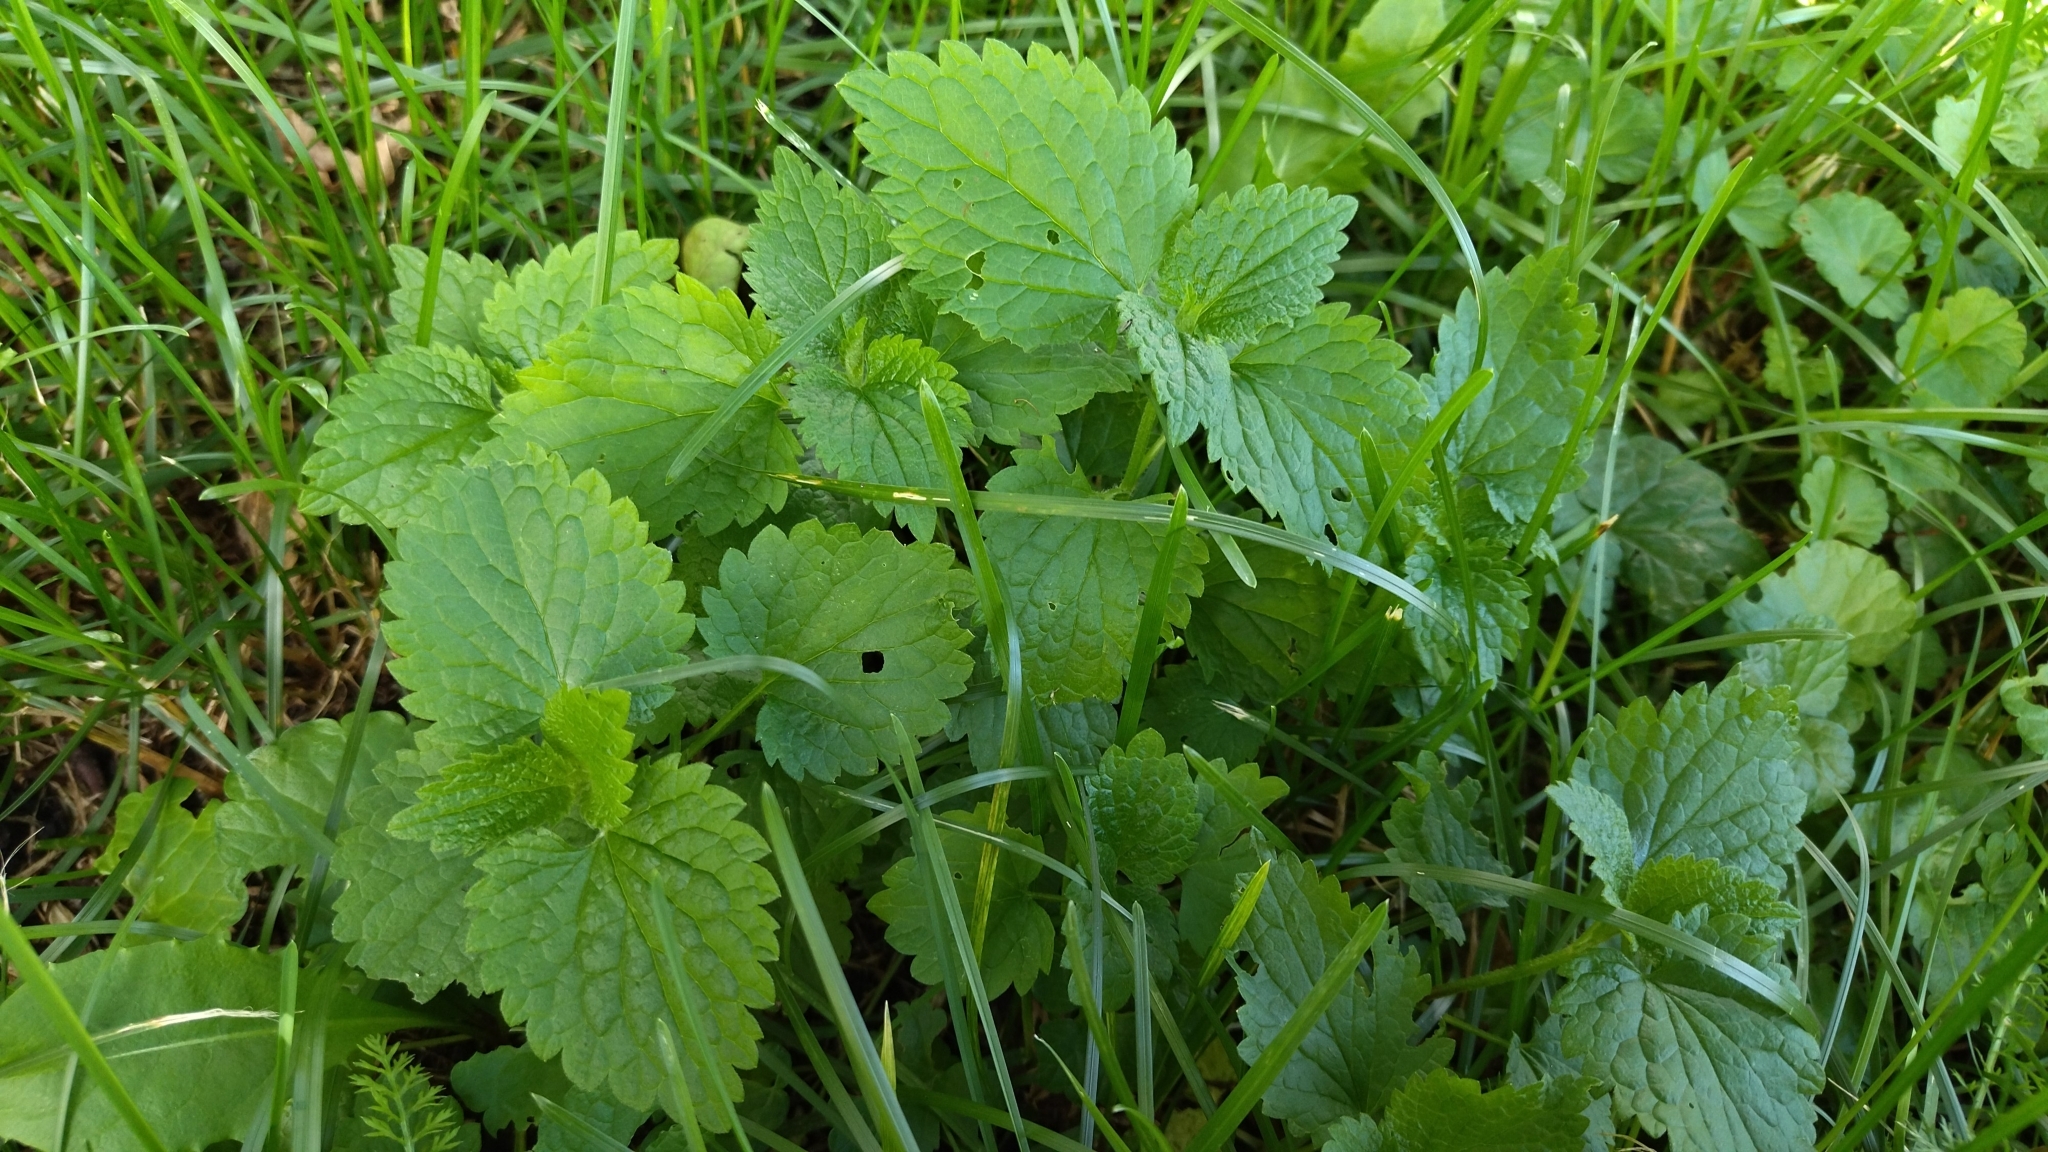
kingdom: Plantae
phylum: Tracheophyta
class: Magnoliopsida
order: Lamiales
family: Lamiaceae
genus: Lamium
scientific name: Lamium album
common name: White dead-nettle
